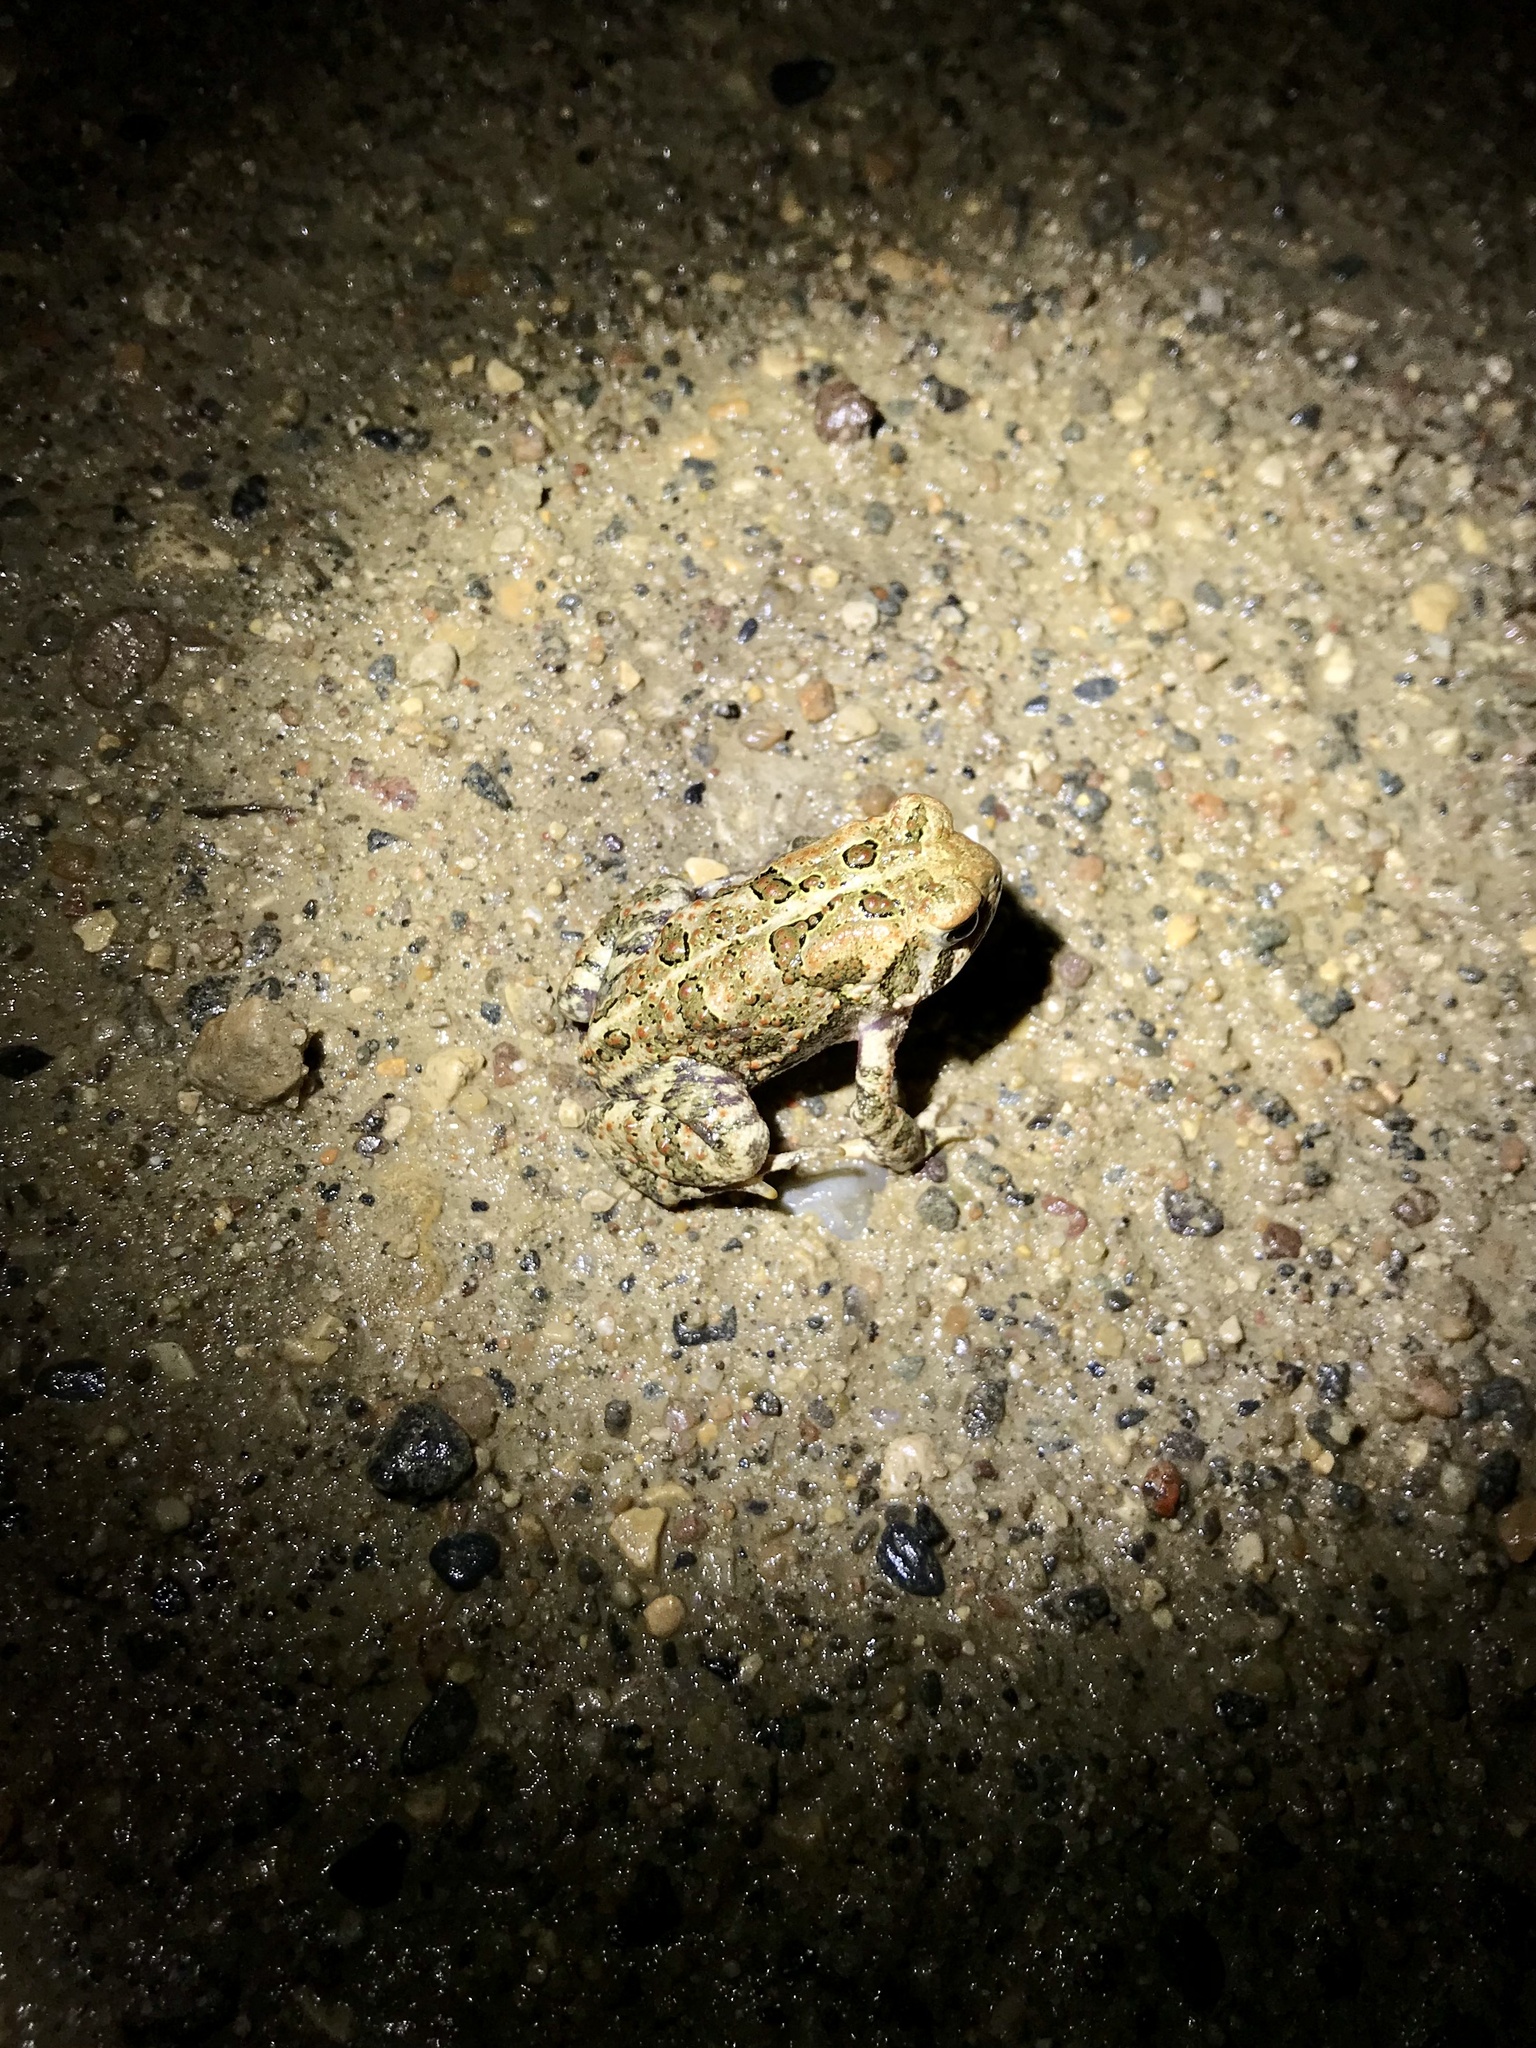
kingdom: Animalia
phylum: Chordata
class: Amphibia
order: Anura
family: Bufonidae
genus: Anaxyrus
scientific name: Anaxyrus americanus
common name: American toad
